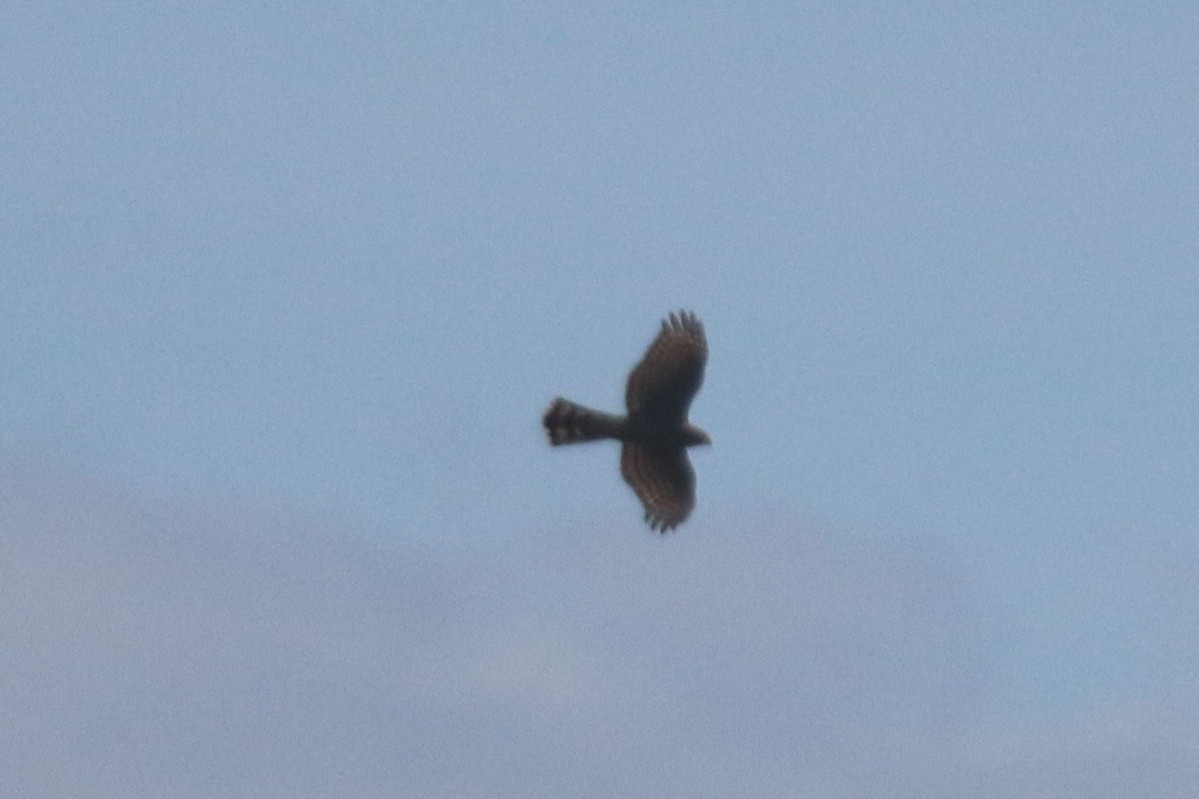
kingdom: Animalia
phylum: Chordata
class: Aves
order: Accipitriformes
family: Accipitridae
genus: Accipiter
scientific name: Accipiter nisus
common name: Eurasian sparrowhawk
